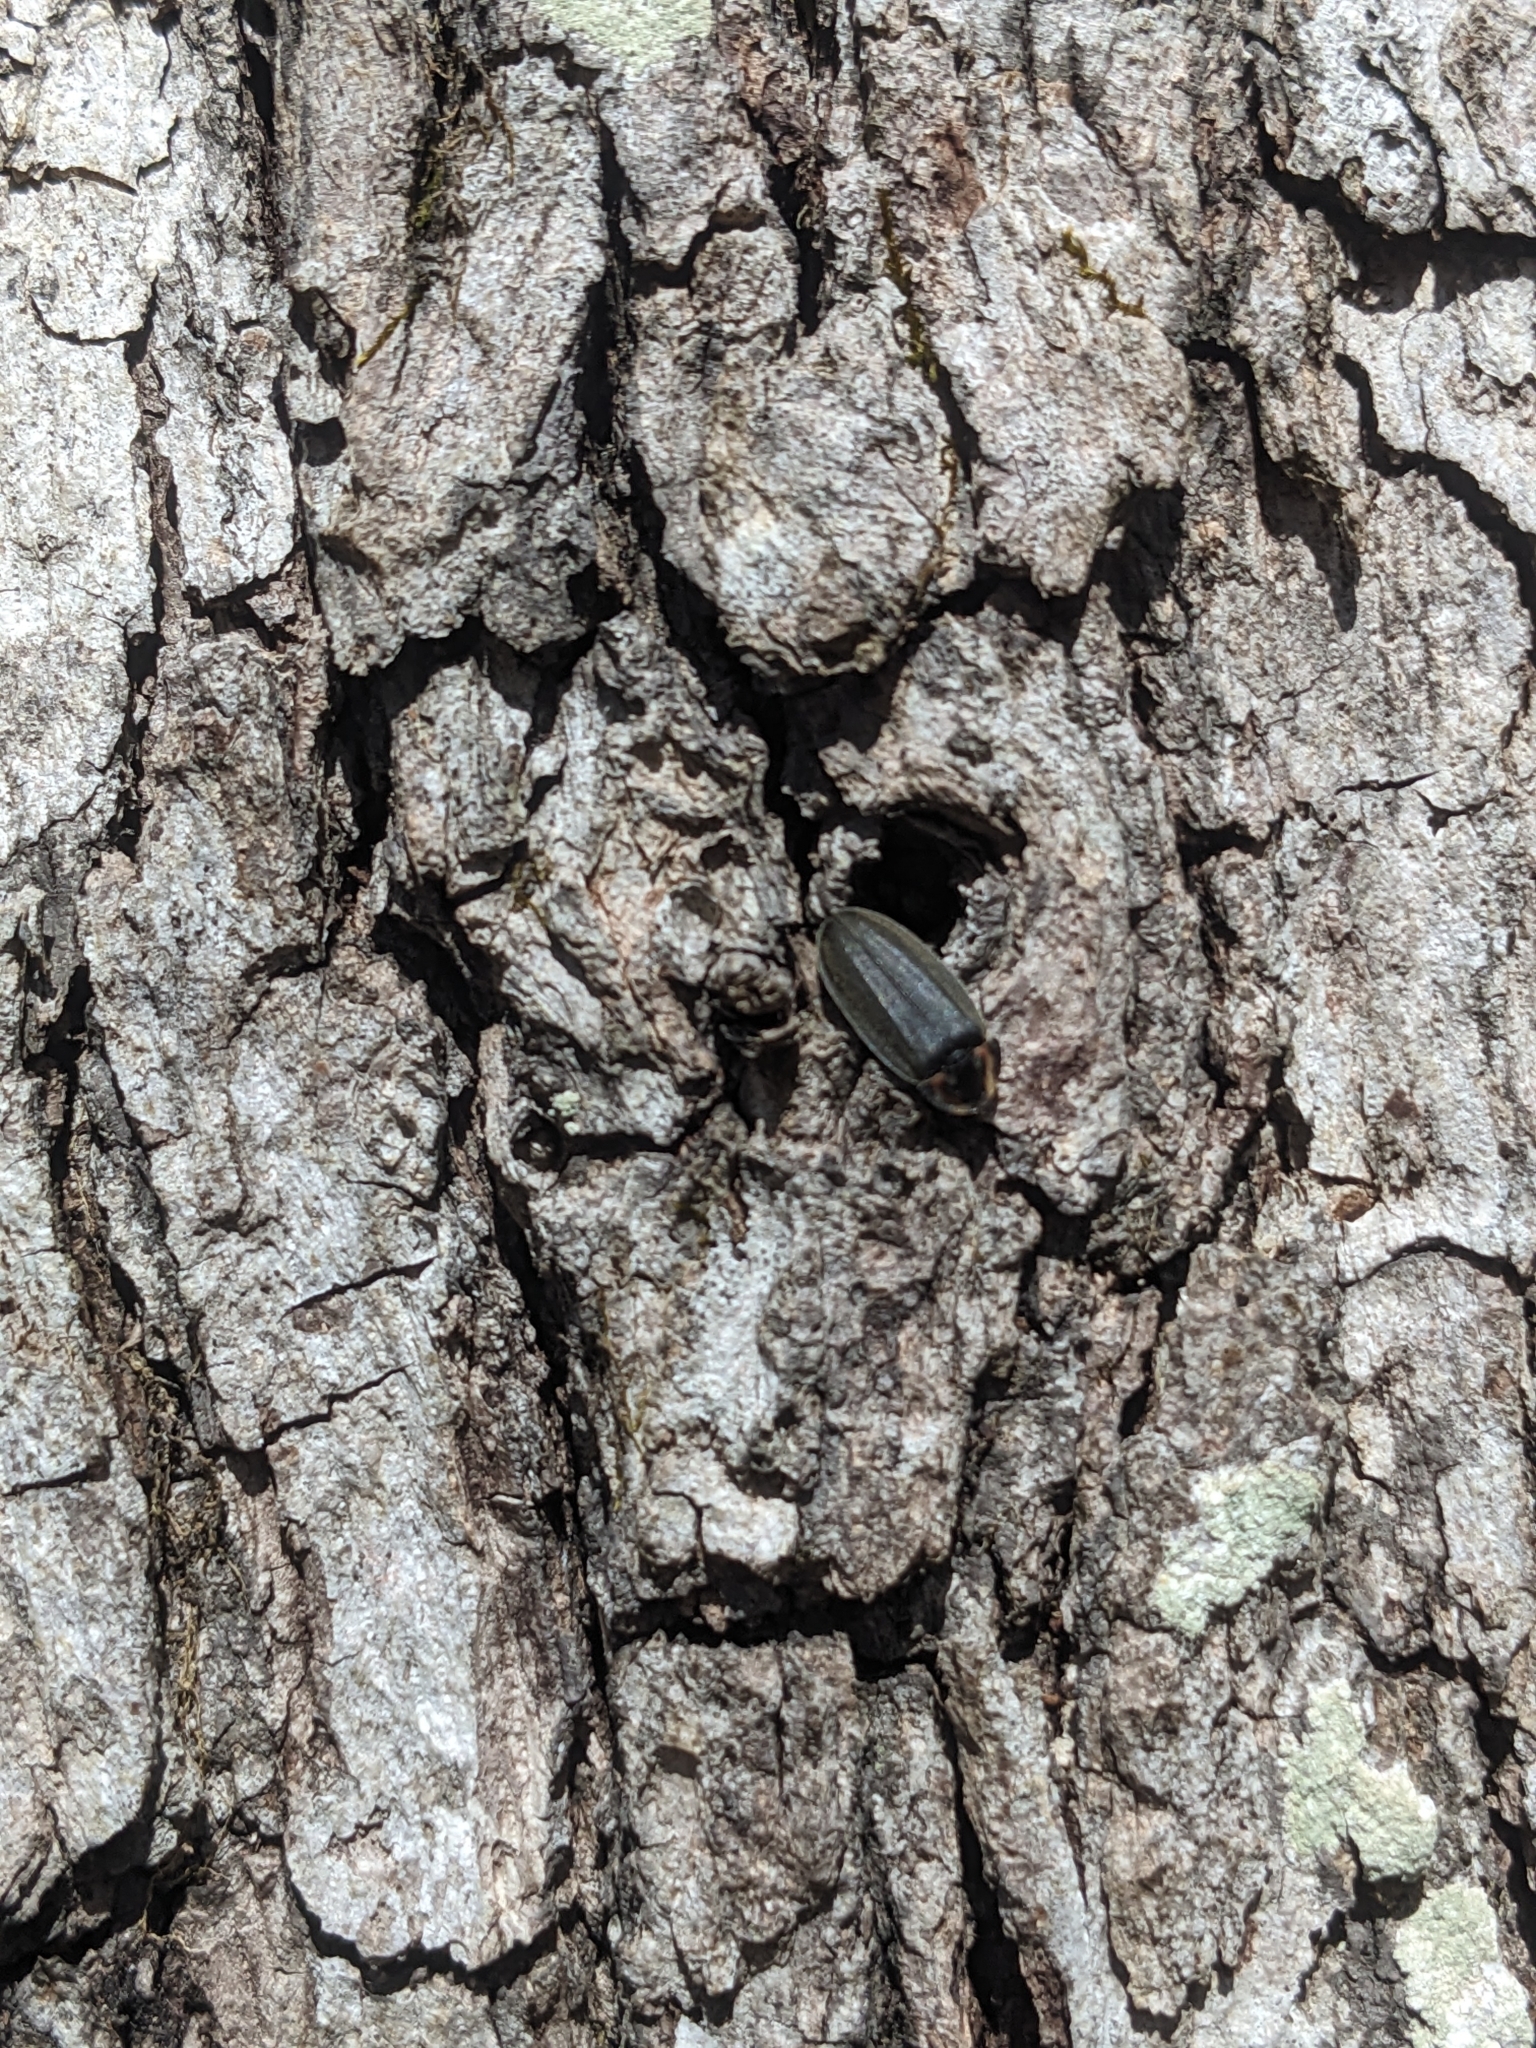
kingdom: Animalia
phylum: Arthropoda
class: Insecta
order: Coleoptera
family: Lampyridae
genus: Photinus
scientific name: Photinus corrusca
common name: Winter firefly
